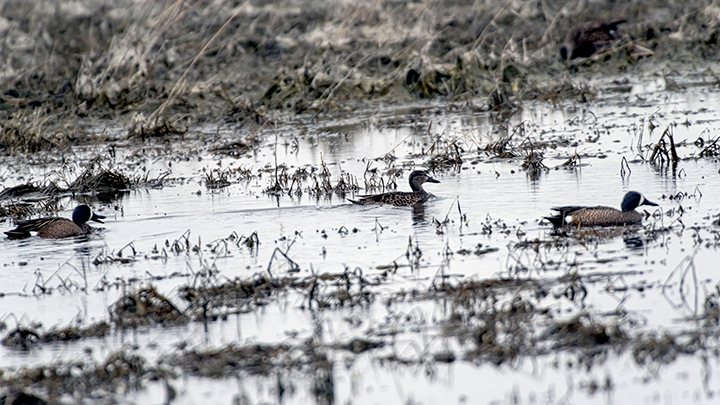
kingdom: Animalia
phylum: Chordata
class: Aves
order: Anseriformes
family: Anatidae
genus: Spatula
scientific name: Spatula discors
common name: Blue-winged teal
